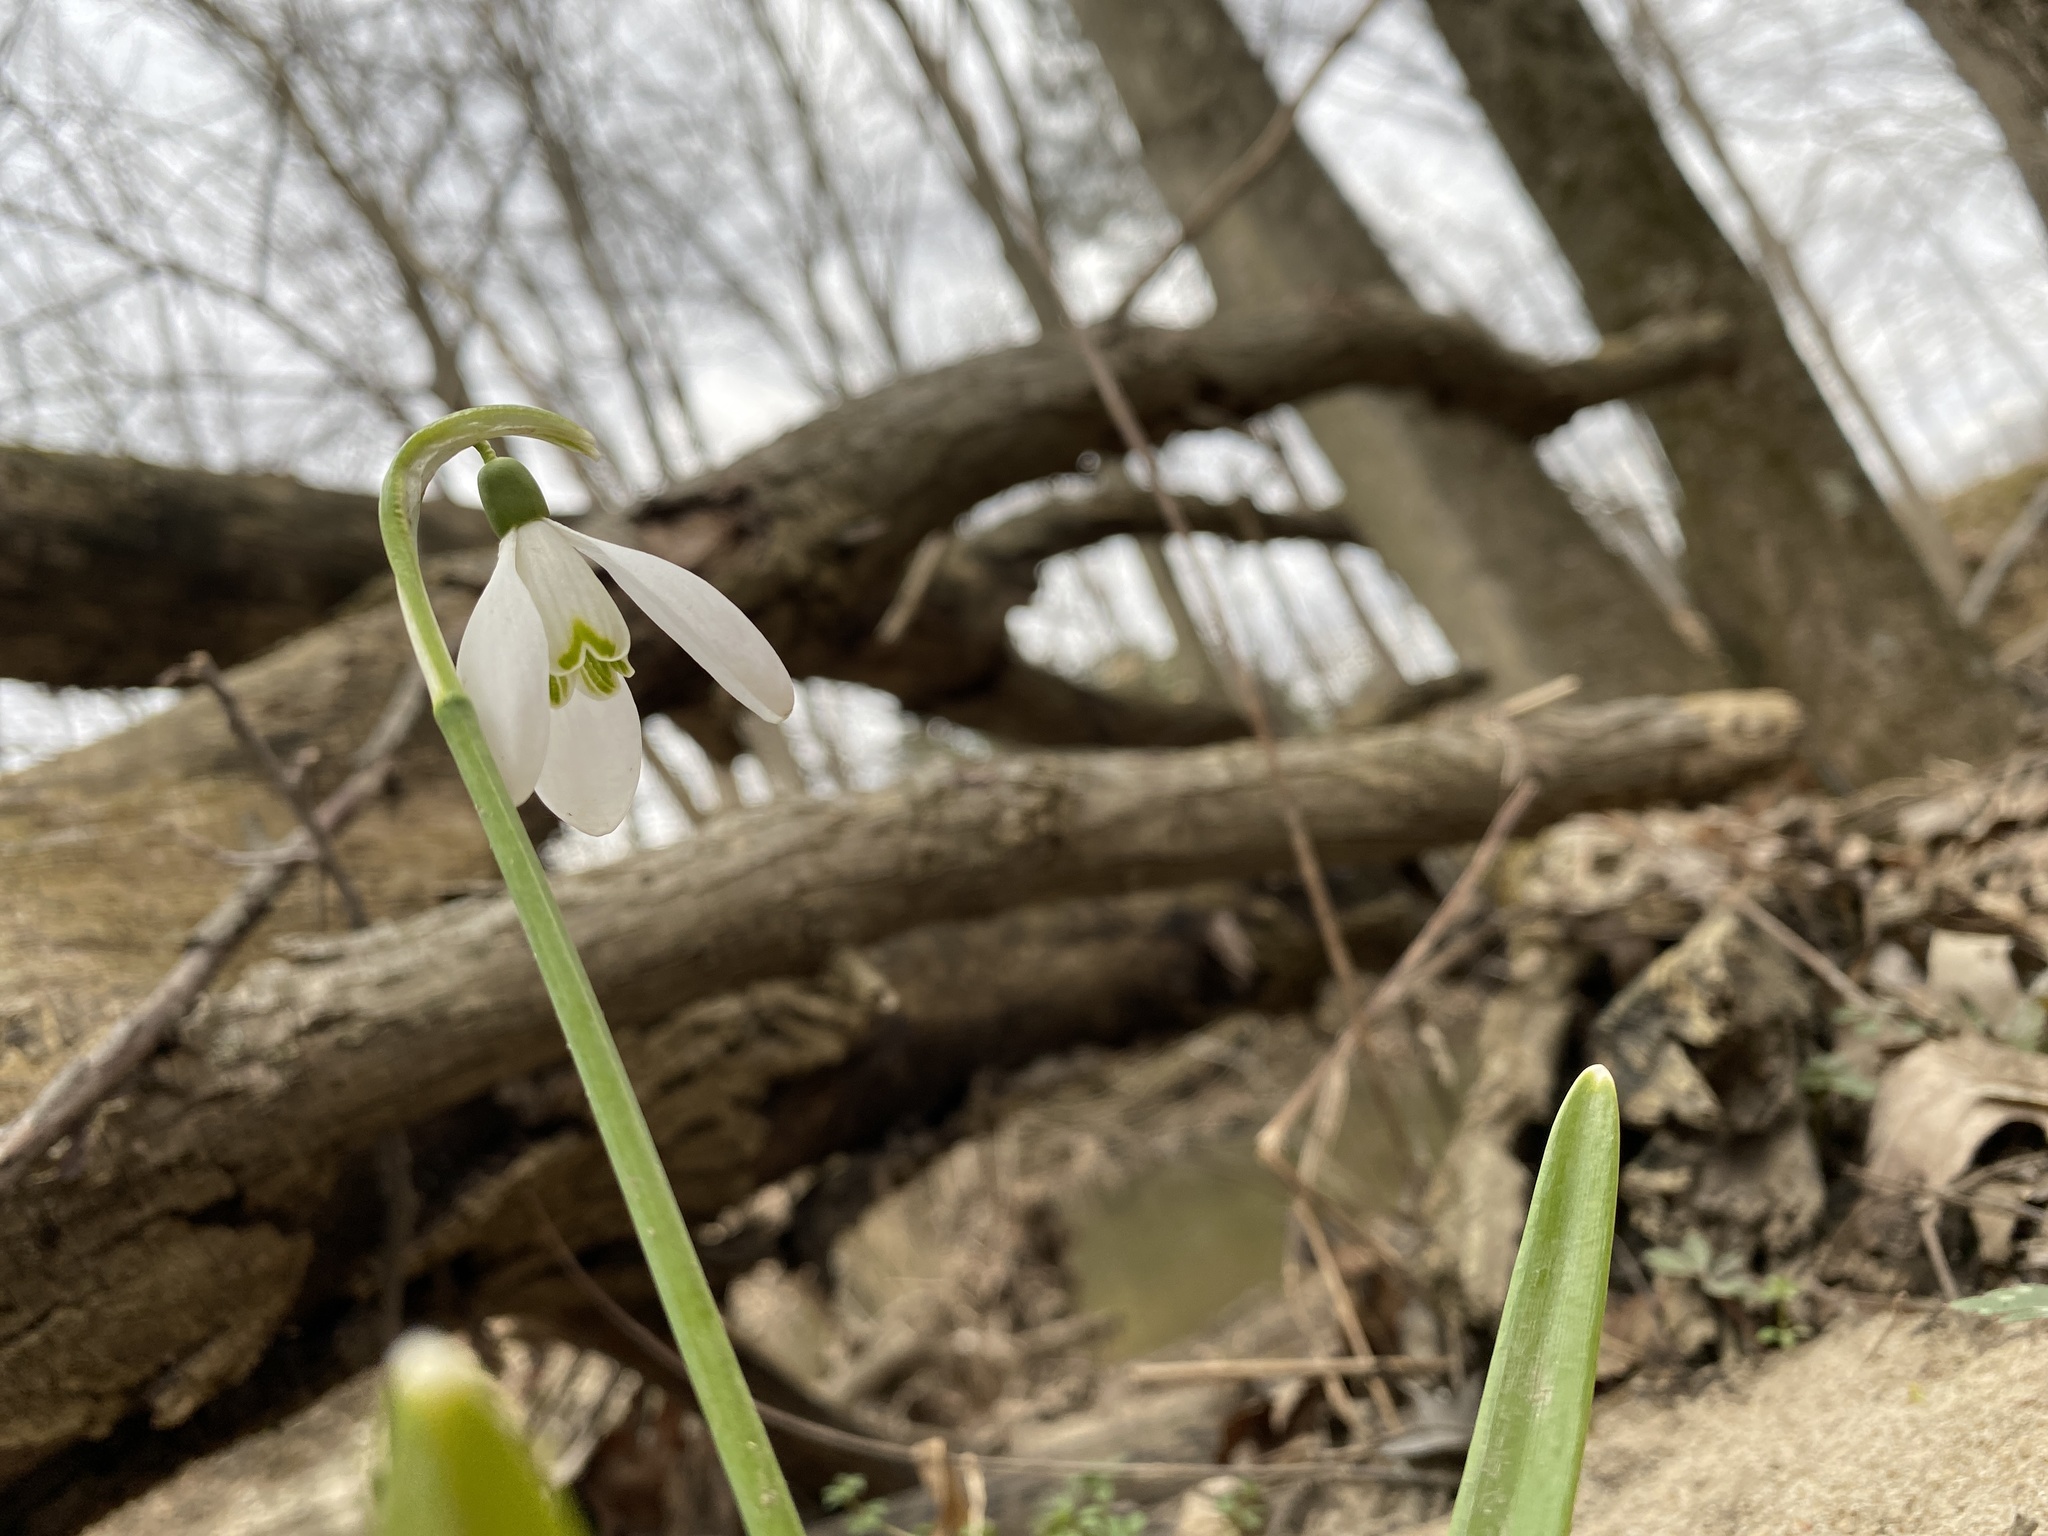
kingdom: Plantae
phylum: Tracheophyta
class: Liliopsida
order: Asparagales
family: Amaryllidaceae
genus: Galanthus
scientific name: Galanthus nivalis
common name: Snowdrop
